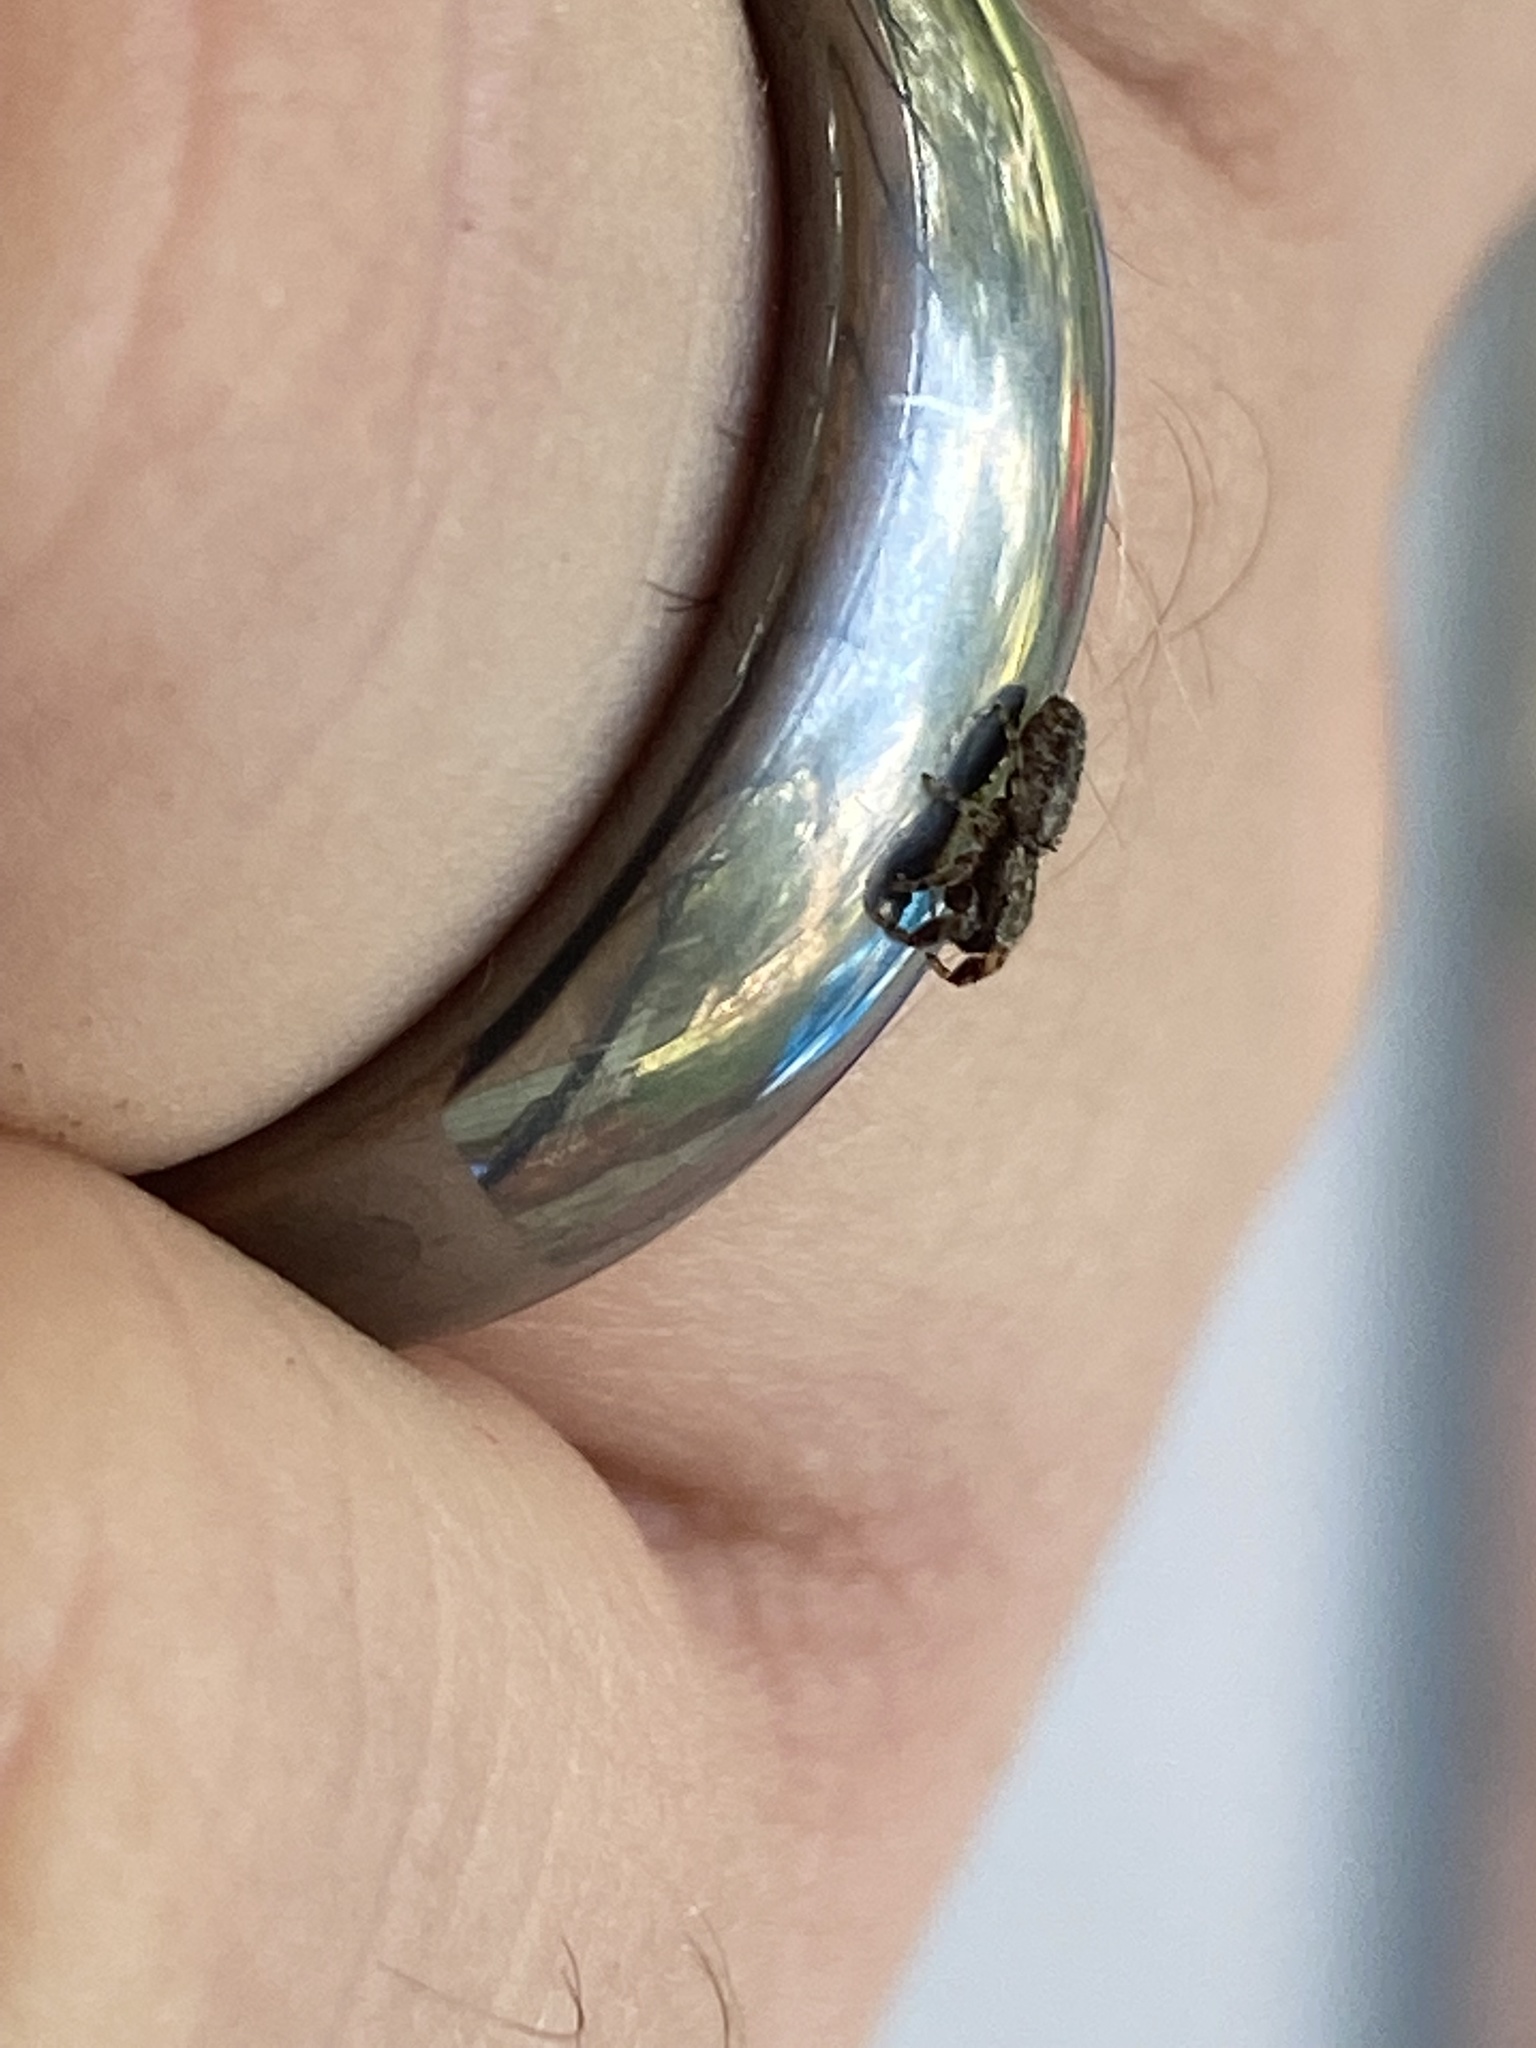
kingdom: Animalia
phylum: Arthropoda
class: Arachnida
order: Araneae
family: Salticidae
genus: Admestina
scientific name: Admestina wheeleri
